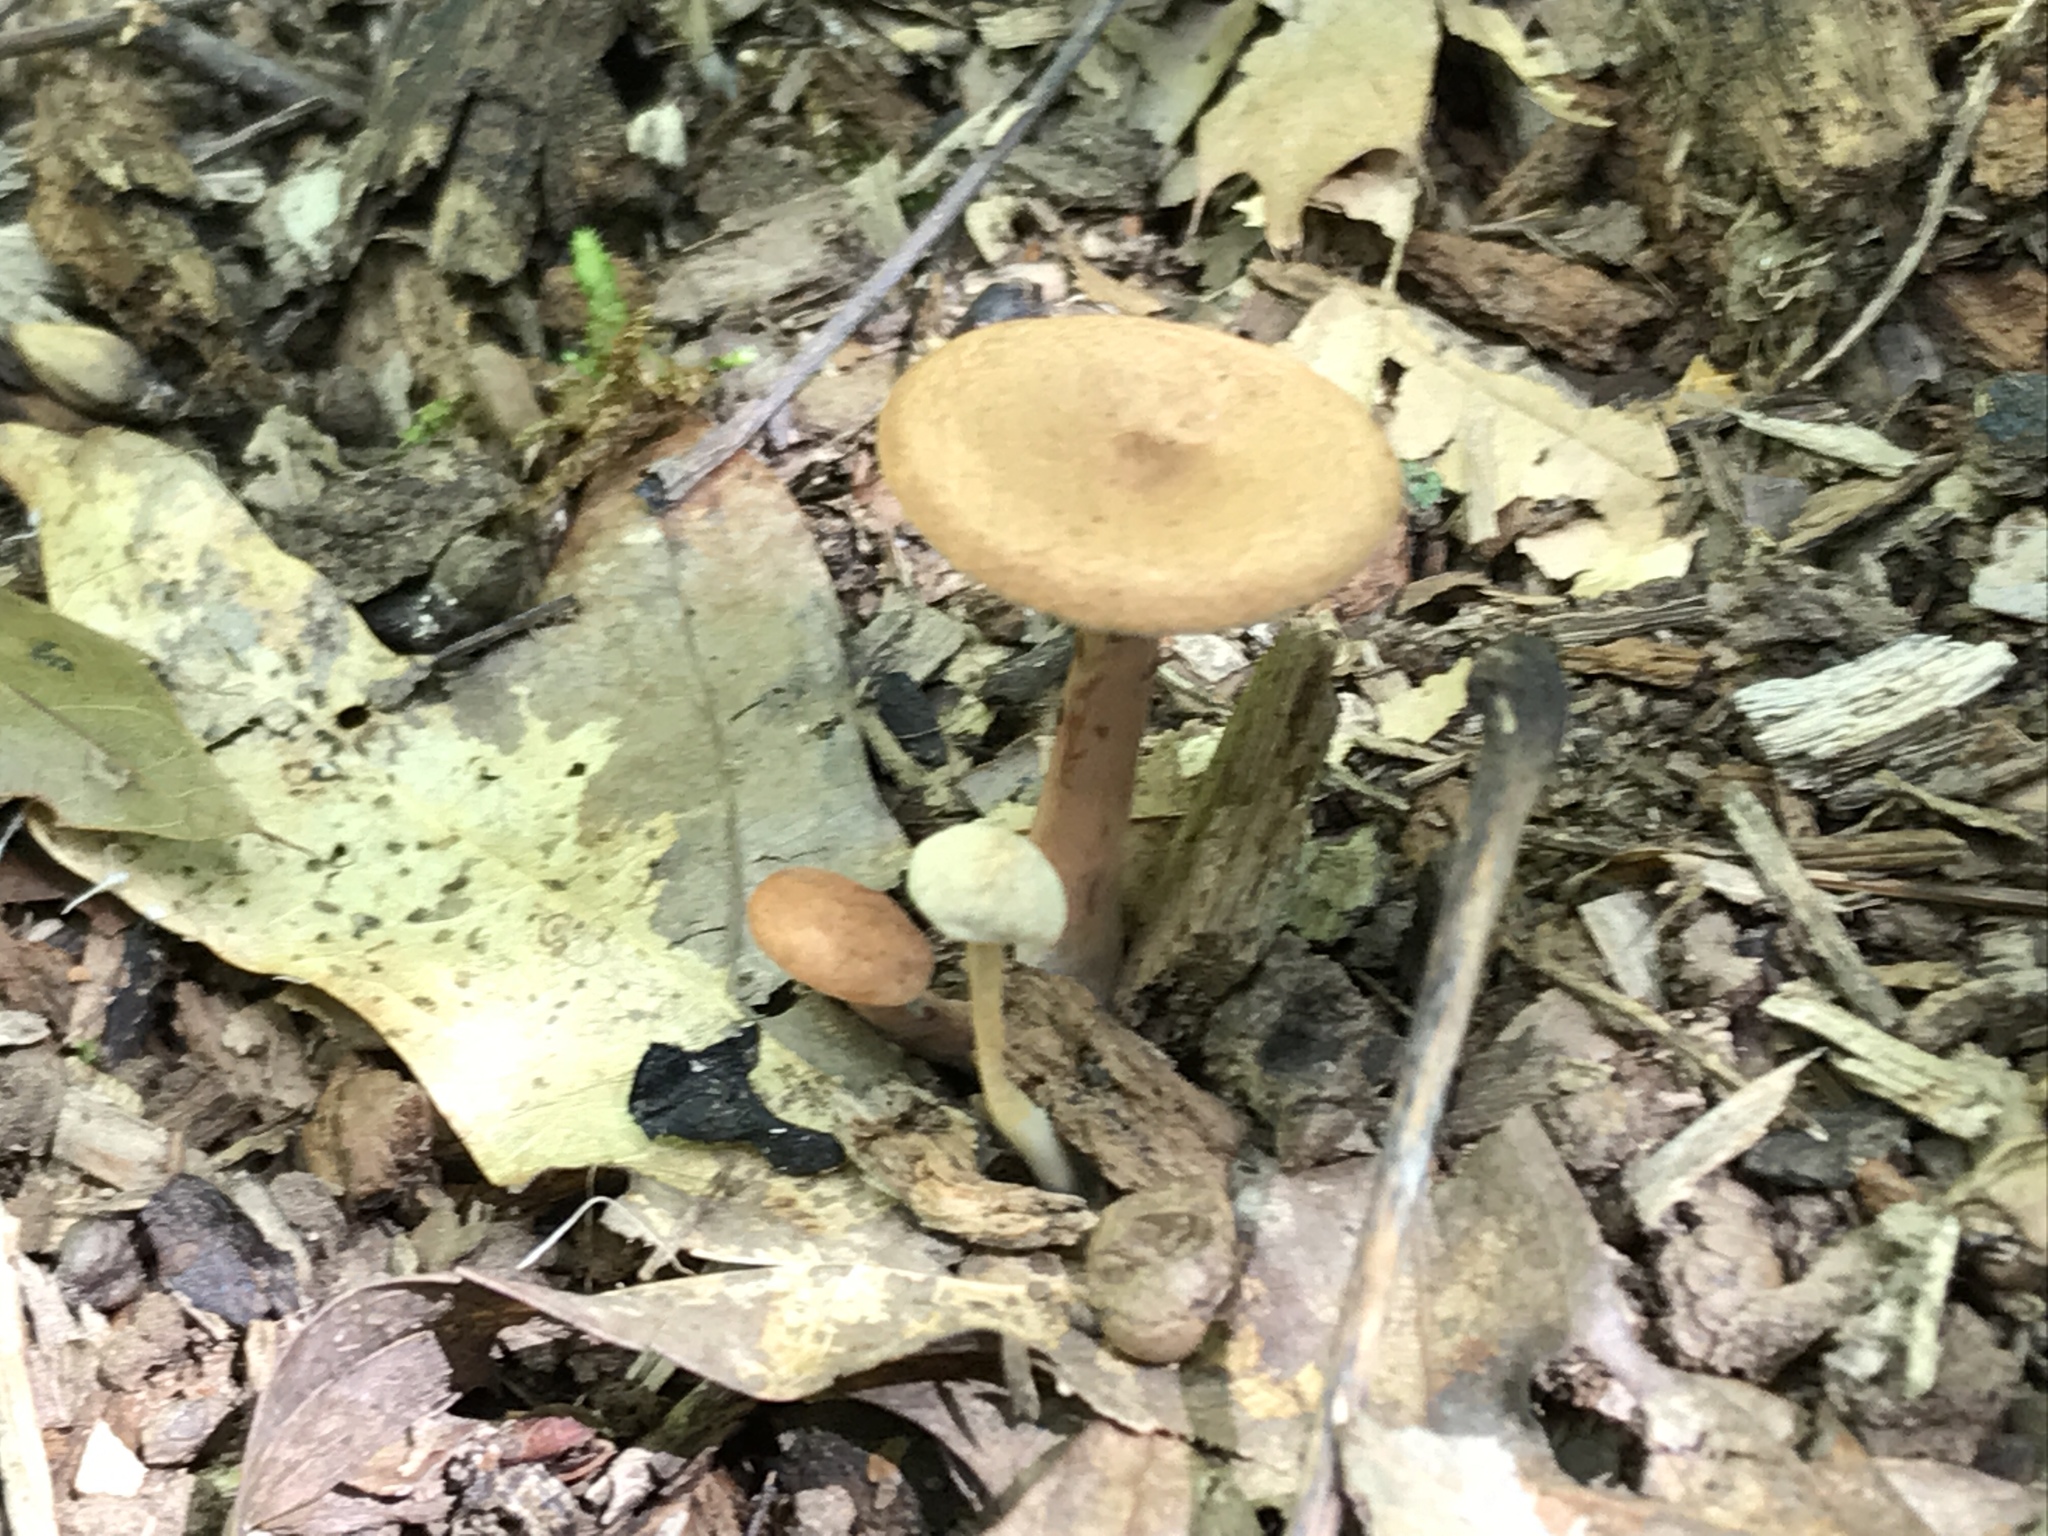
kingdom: Fungi
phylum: Basidiomycota
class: Agaricomycetes
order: Russulales
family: Russulaceae
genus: Lactarius
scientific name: Lactarius camphoratus
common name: Curry milkcap
